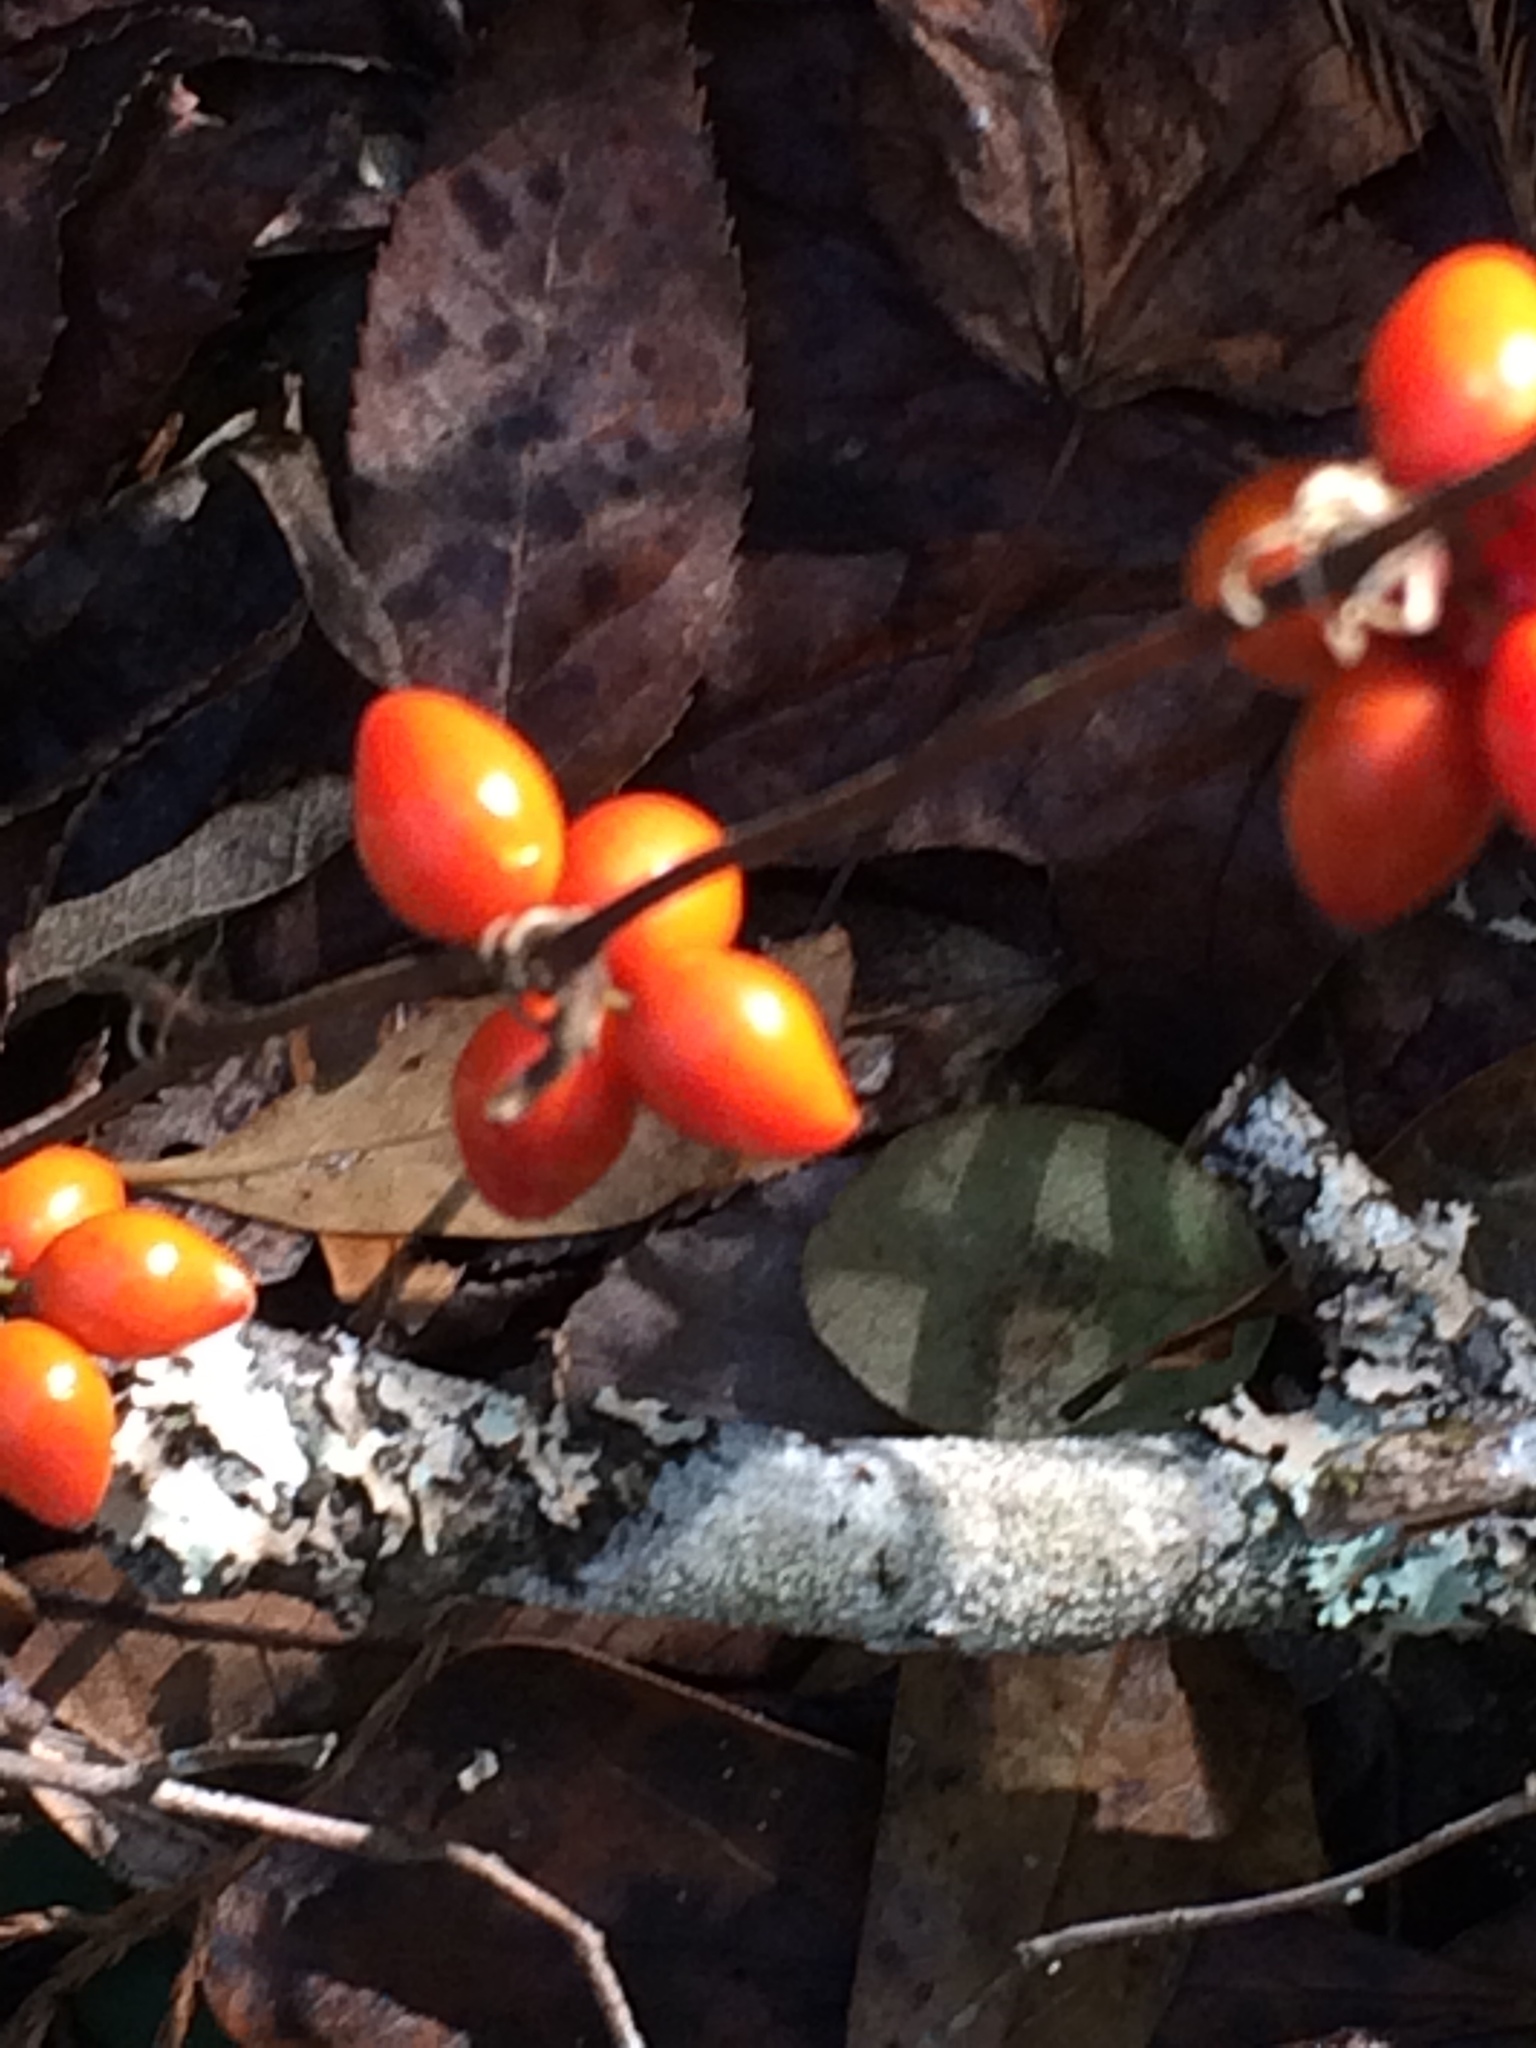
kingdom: Plantae
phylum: Tracheophyta
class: Liliopsida
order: Liliales
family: Smilacaceae
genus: Smilax
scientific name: Smilax pumila
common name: Sarsaparilla-vine
